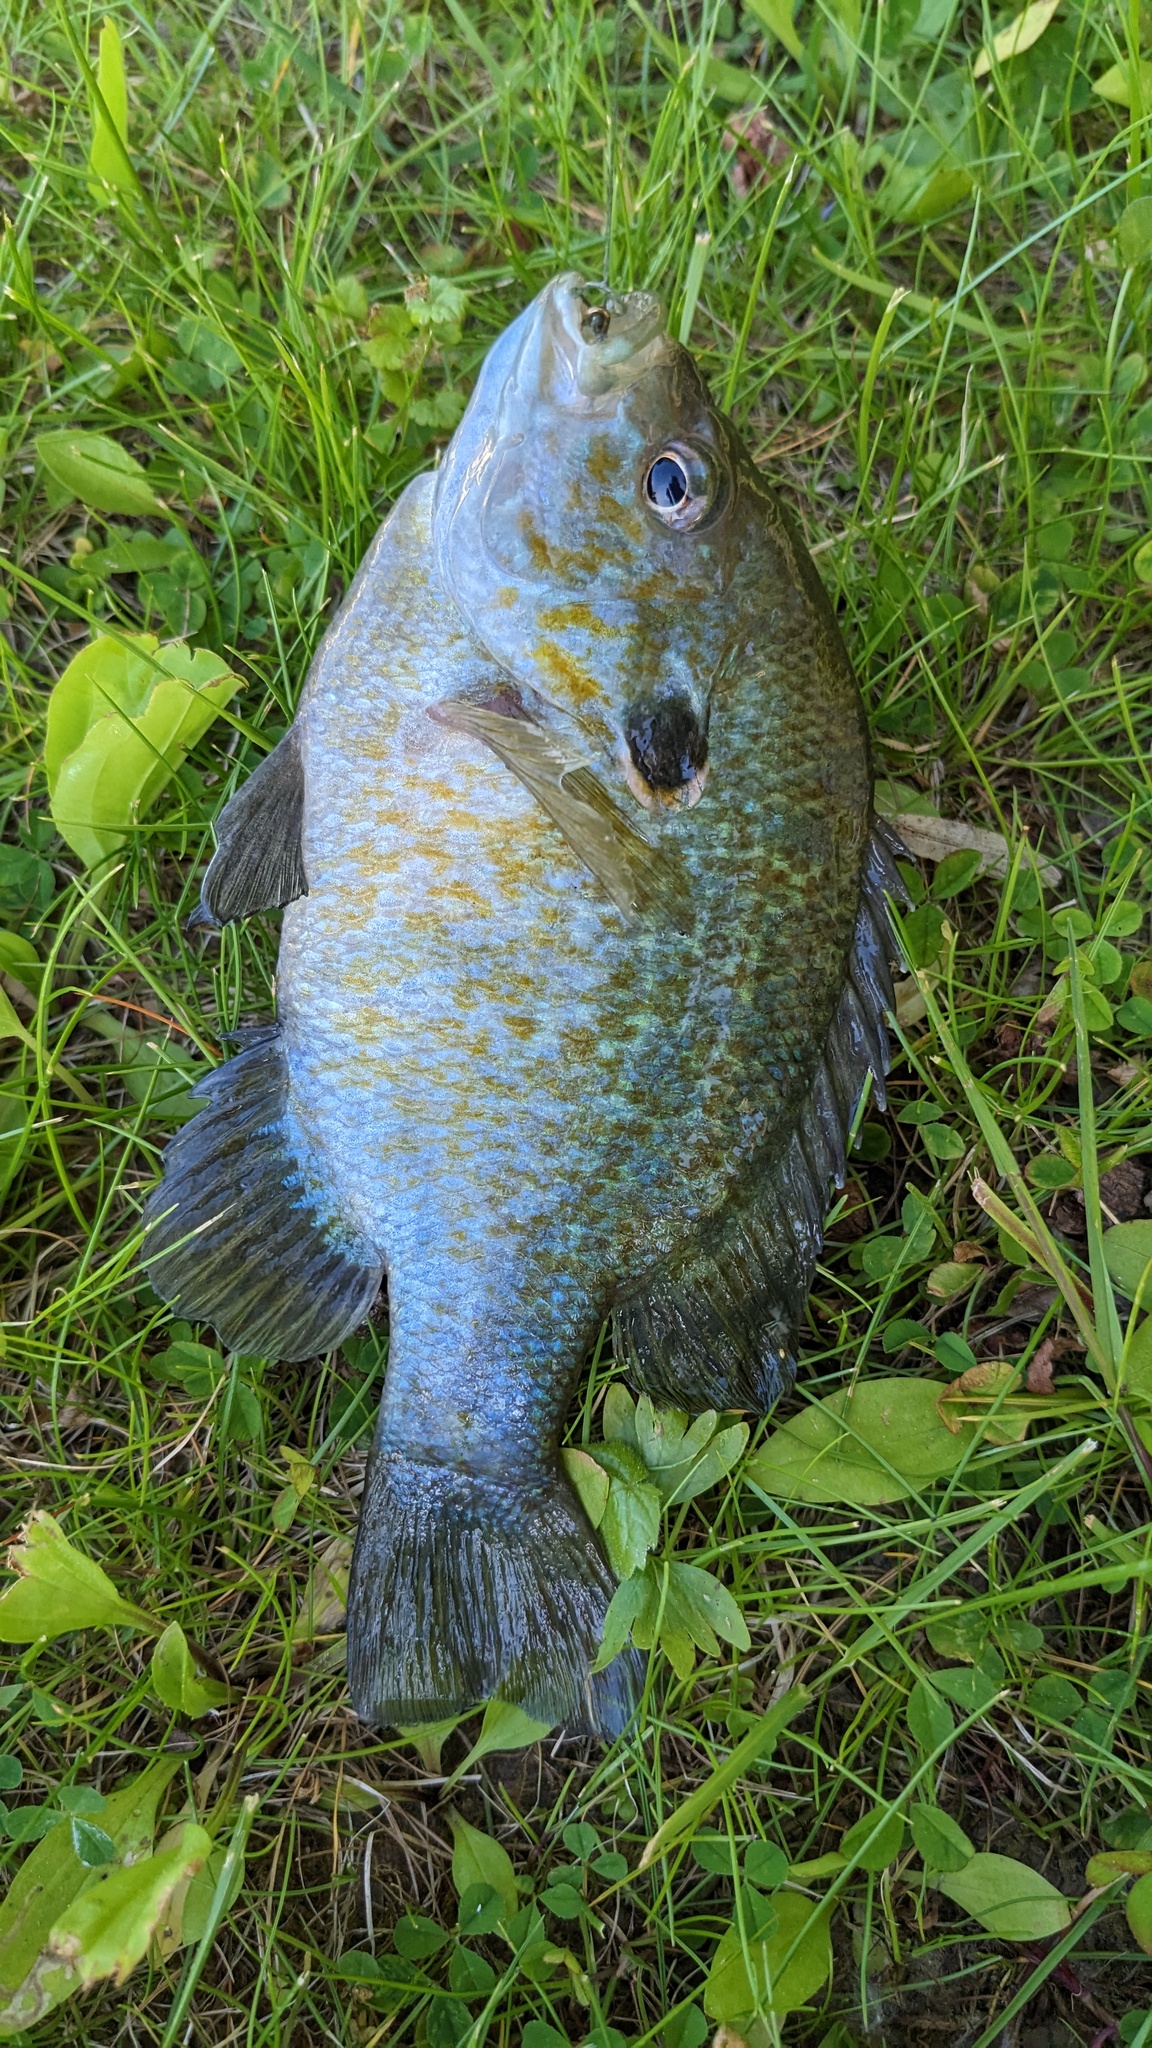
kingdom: Animalia
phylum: Chordata
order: Perciformes
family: Centrarchidae
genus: Lepomis
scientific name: Lepomis
